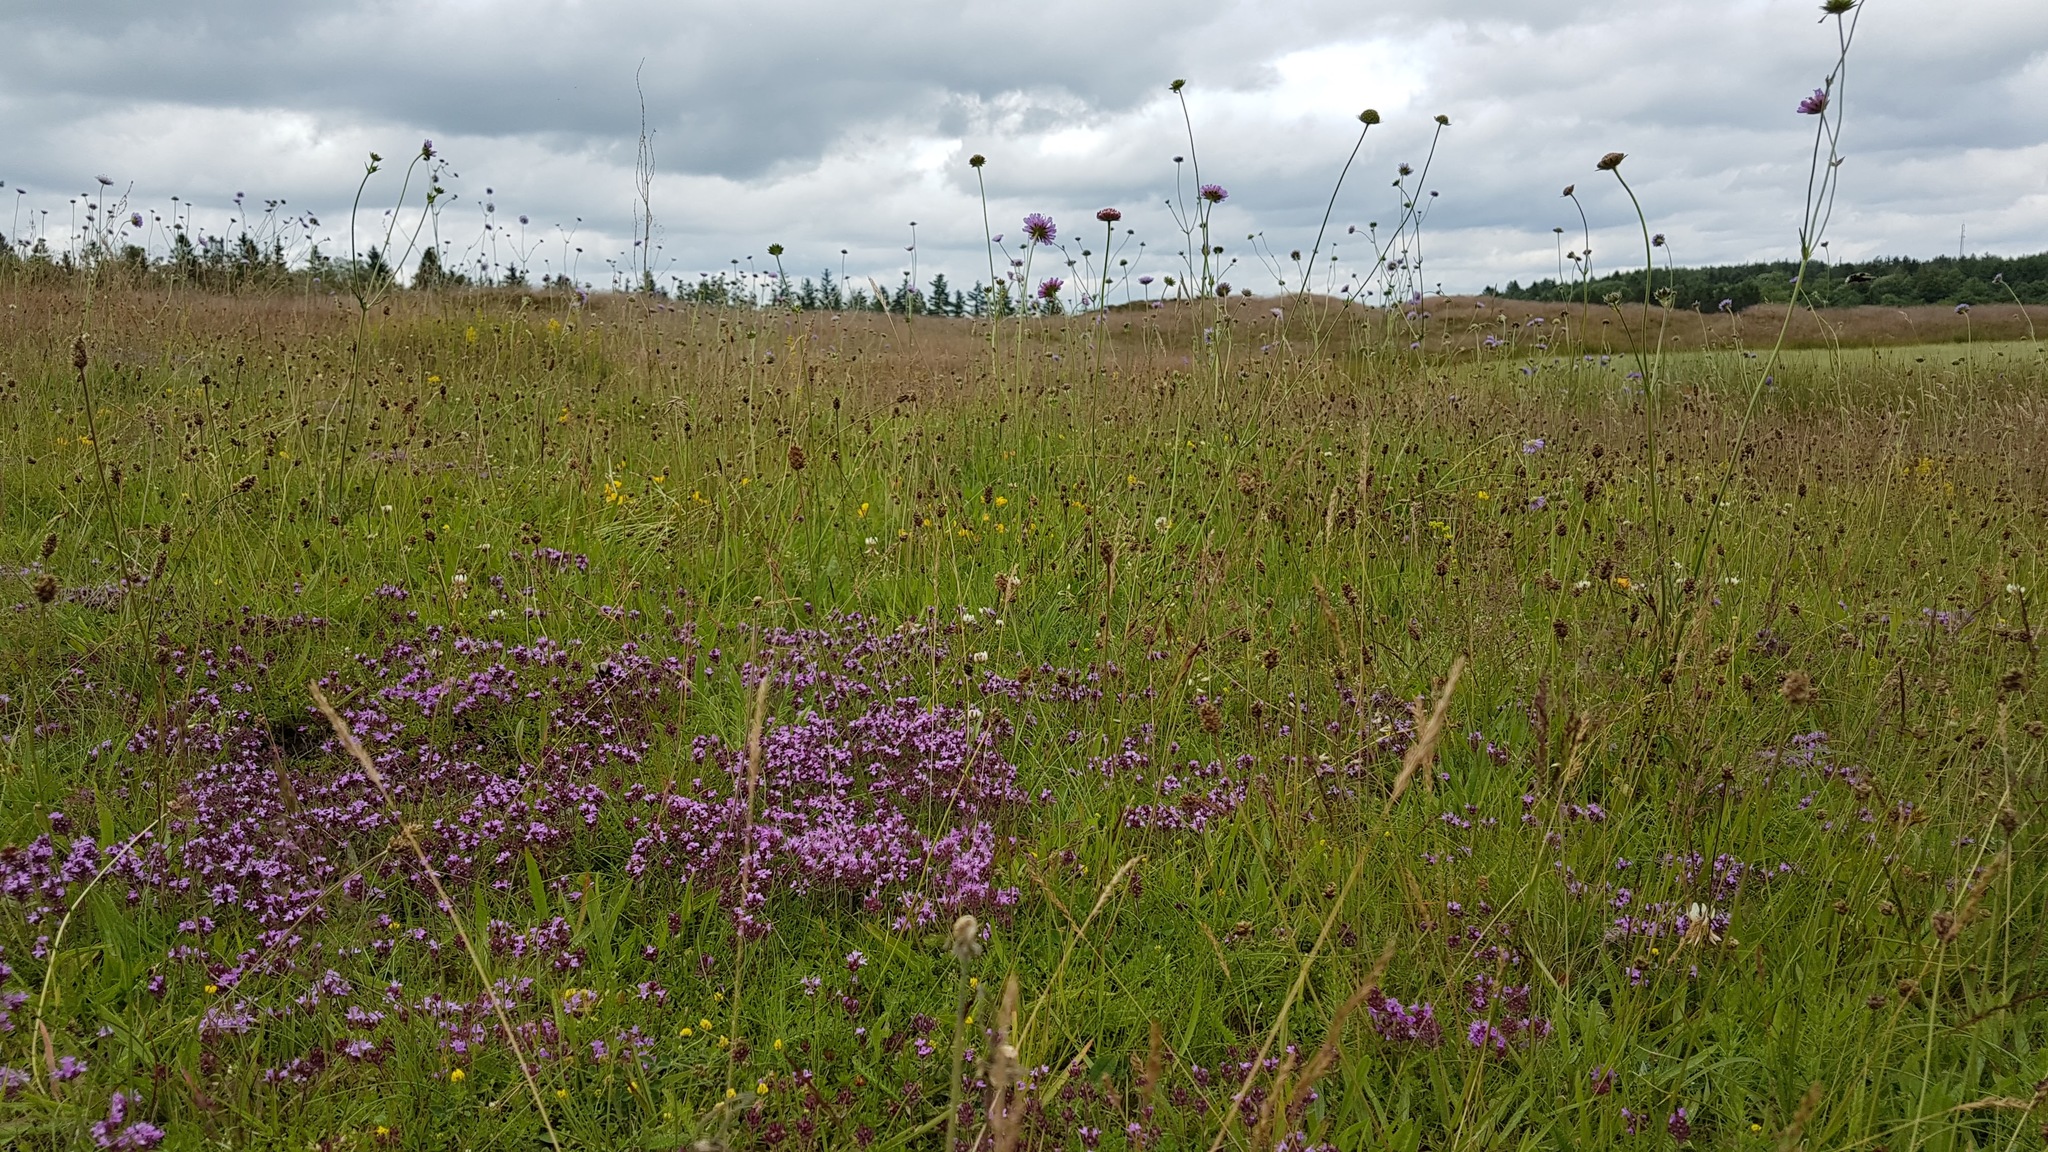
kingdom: Plantae
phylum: Tracheophyta
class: Magnoliopsida
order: Lamiales
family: Lamiaceae
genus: Thymus
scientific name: Thymus serpyllum
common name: Breckland thyme
